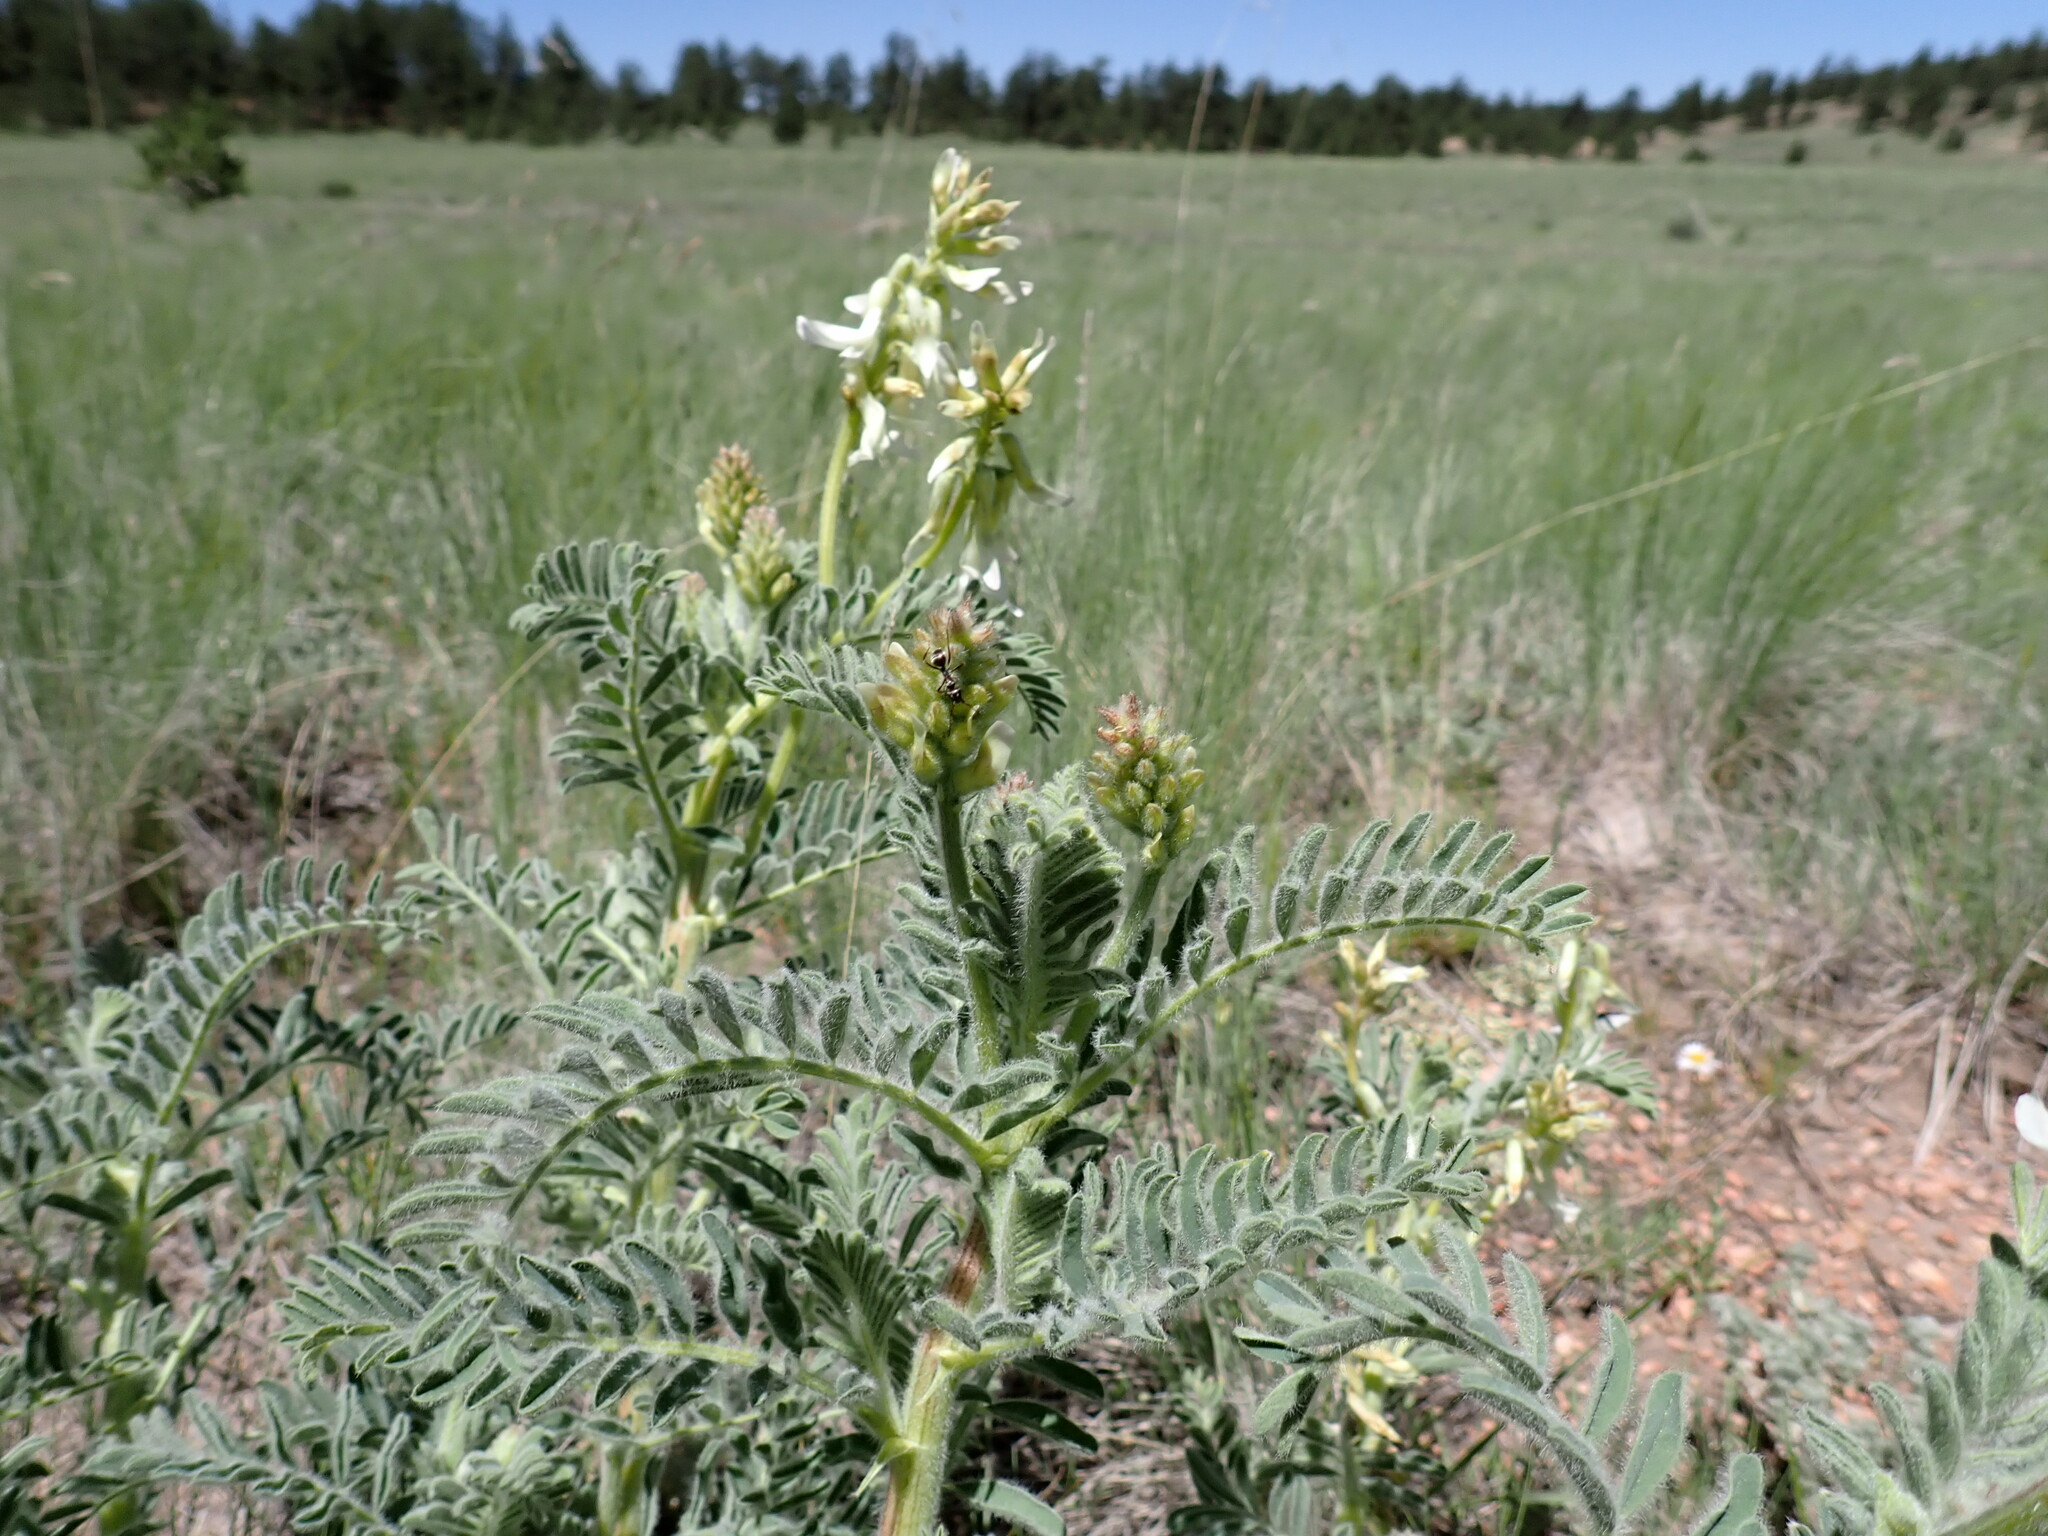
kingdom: Plantae
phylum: Tracheophyta
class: Magnoliopsida
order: Fabales
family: Fabaceae
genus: Astragalus
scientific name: Astragalus drummondii
